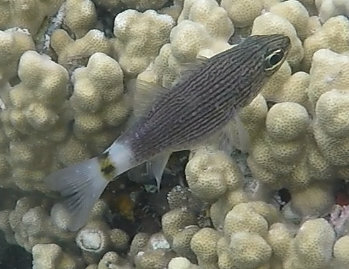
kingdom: Animalia
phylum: Chordata
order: Perciformes
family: Apogonidae
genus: Cheilodipterus
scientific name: Cheilodipterus lachneri
